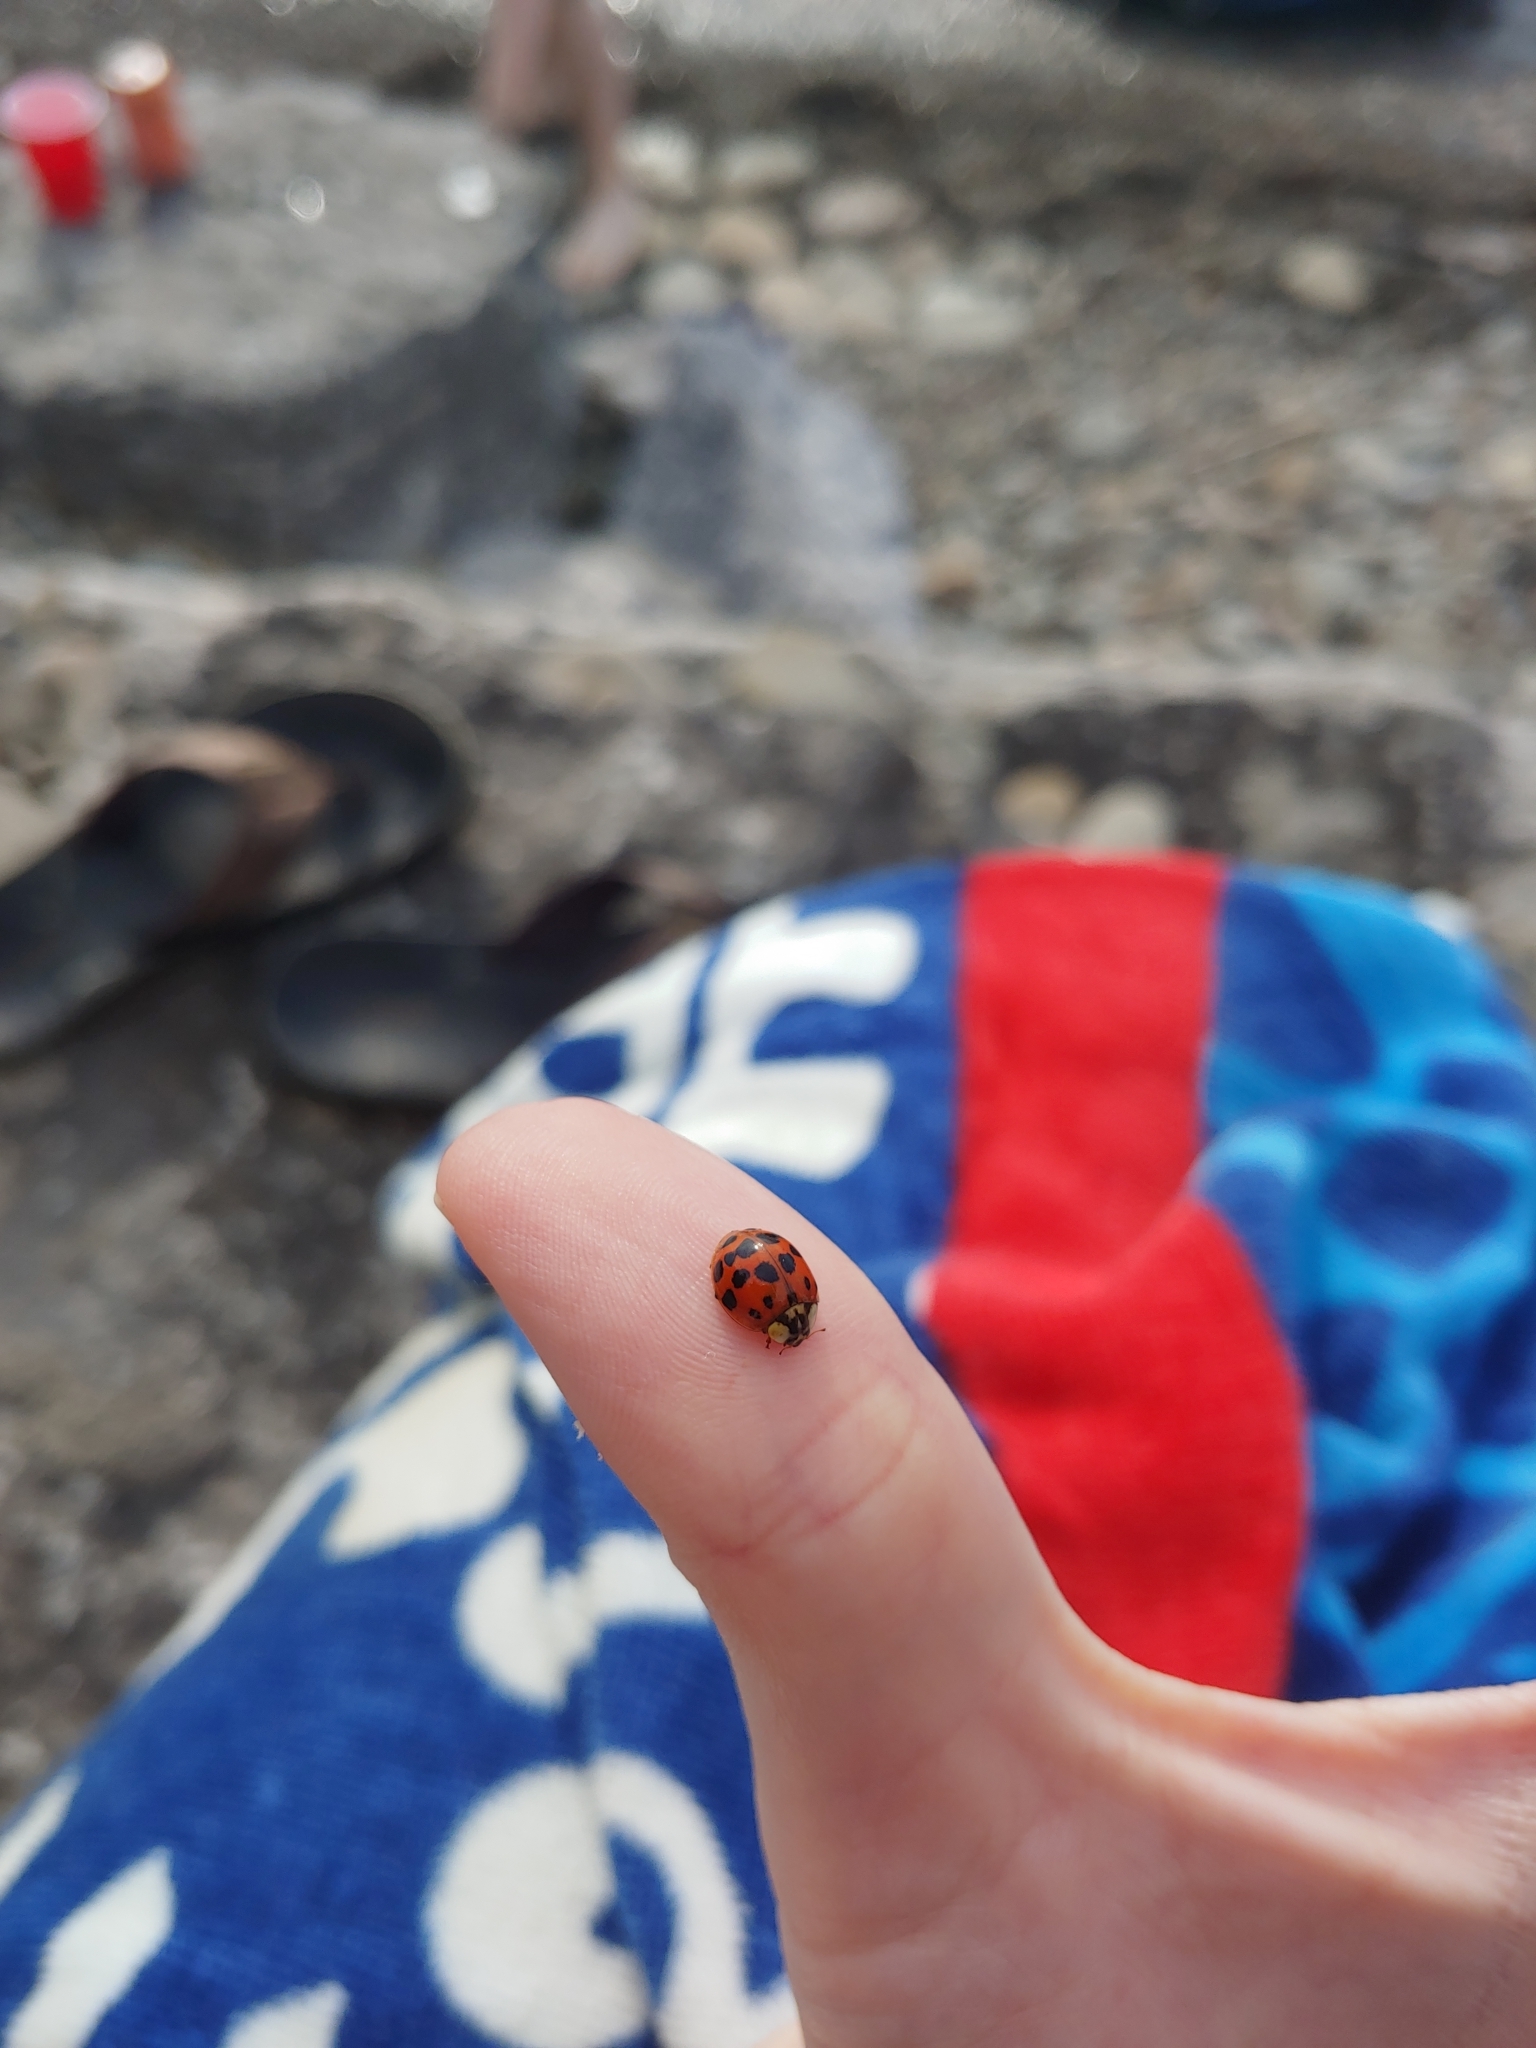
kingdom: Animalia
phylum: Arthropoda
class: Insecta
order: Coleoptera
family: Coccinellidae
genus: Harmonia
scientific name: Harmonia axyridis
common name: Harlequin ladybird
